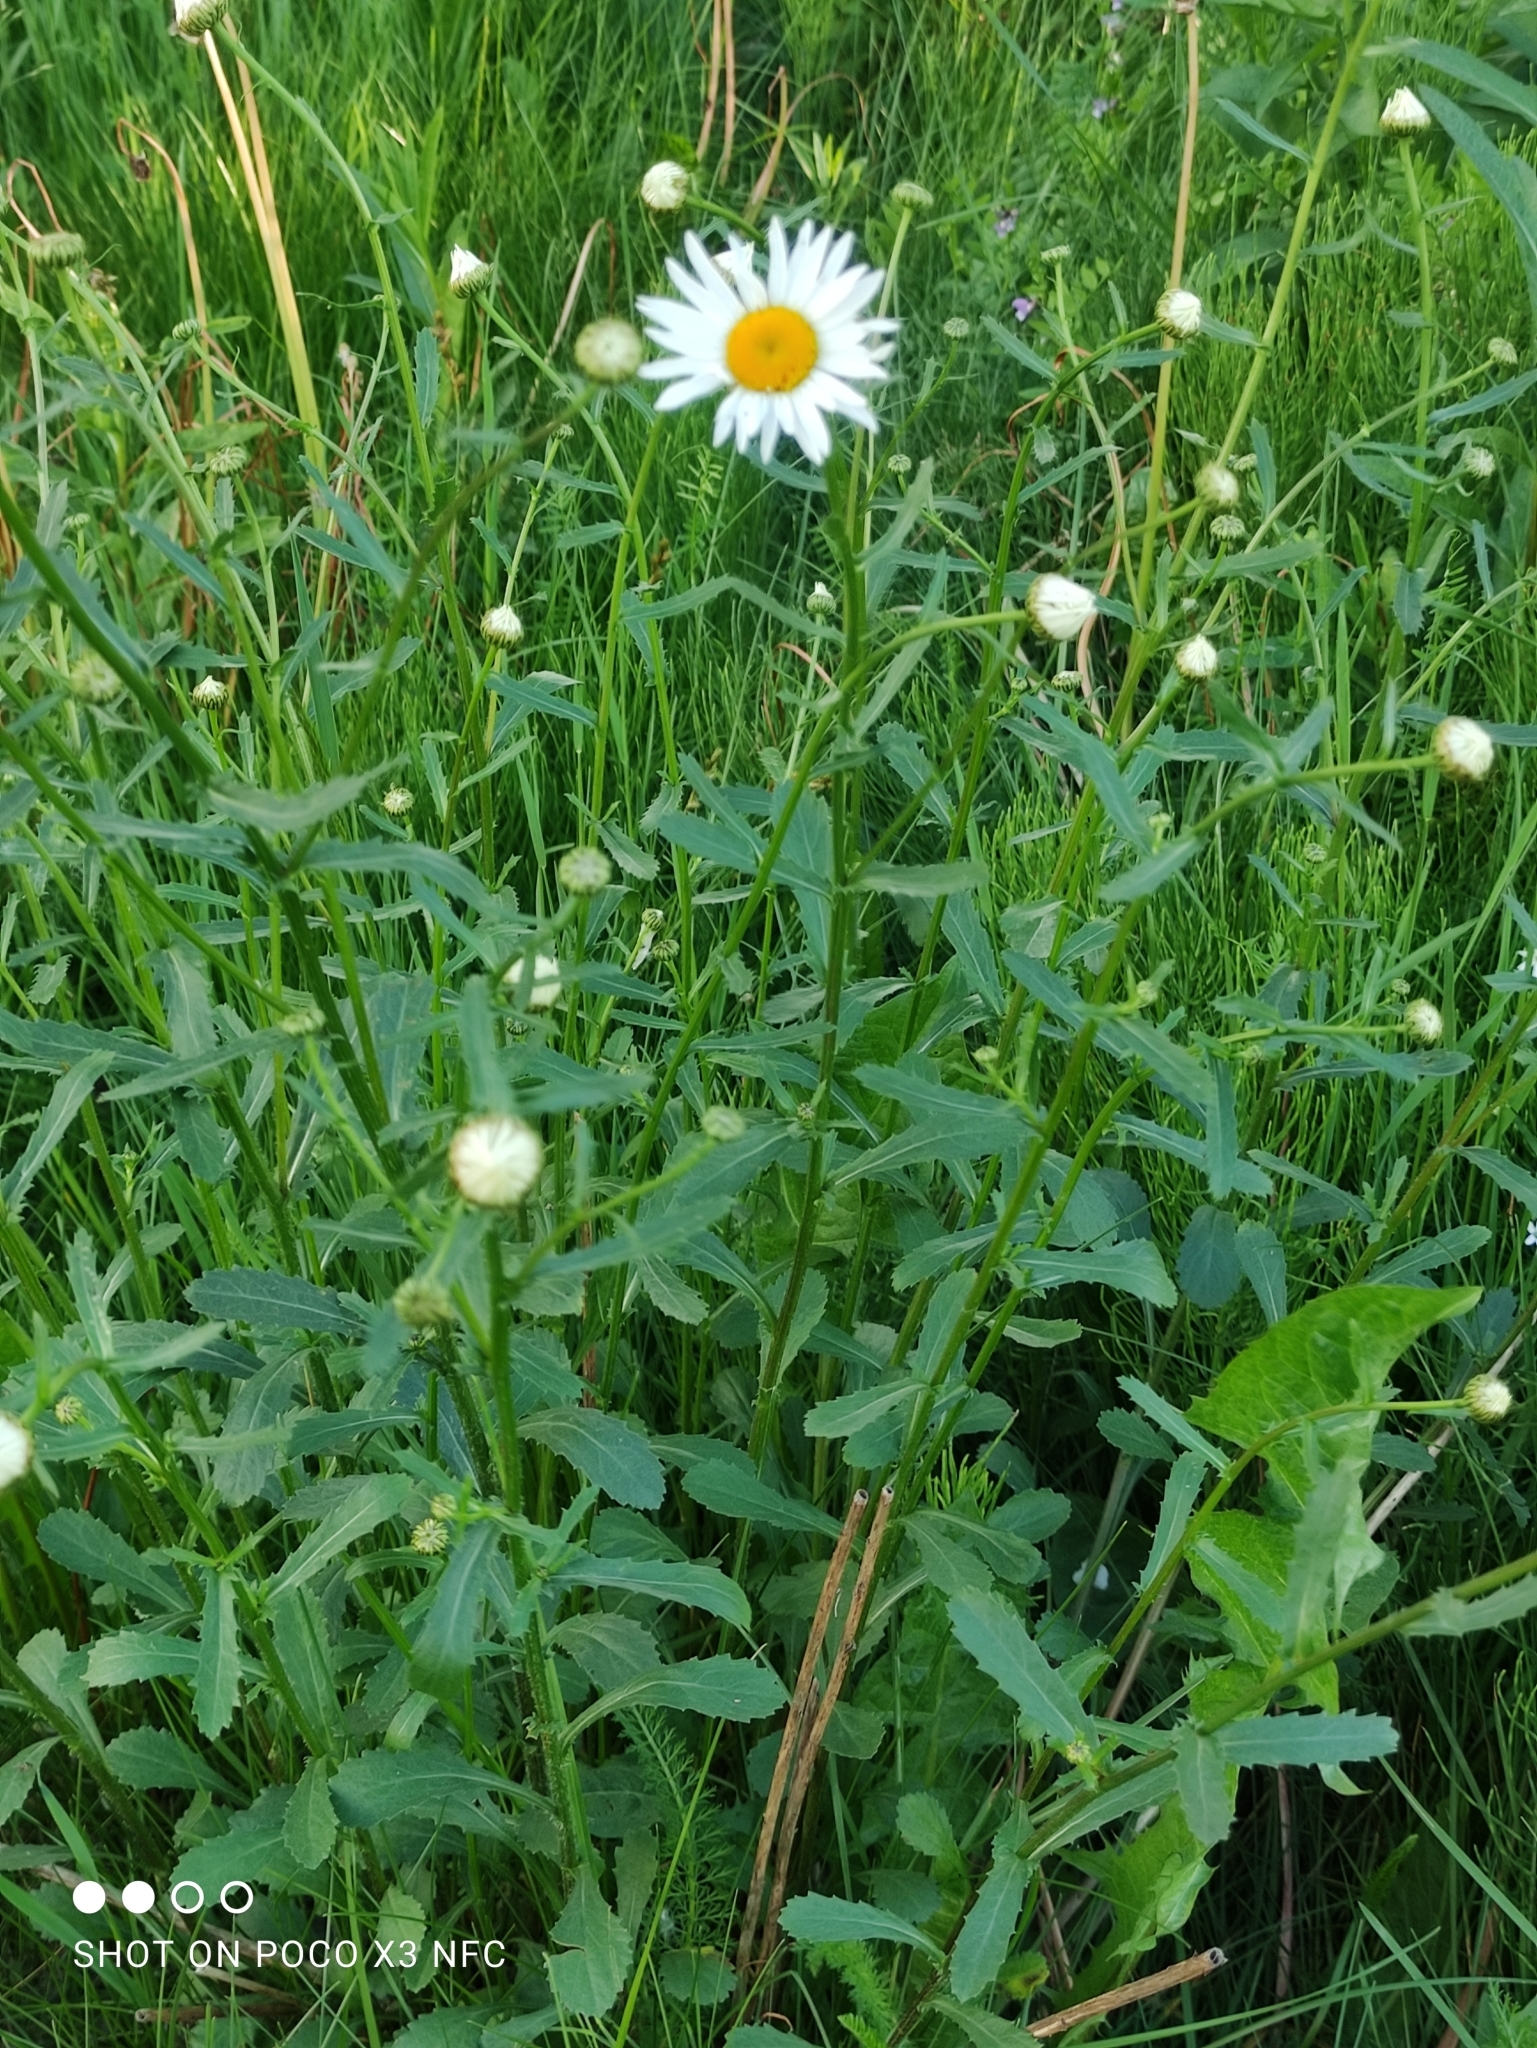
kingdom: Plantae
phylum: Tracheophyta
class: Magnoliopsida
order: Asterales
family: Asteraceae
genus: Leucanthemum
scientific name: Leucanthemum vulgare
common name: Oxeye daisy
